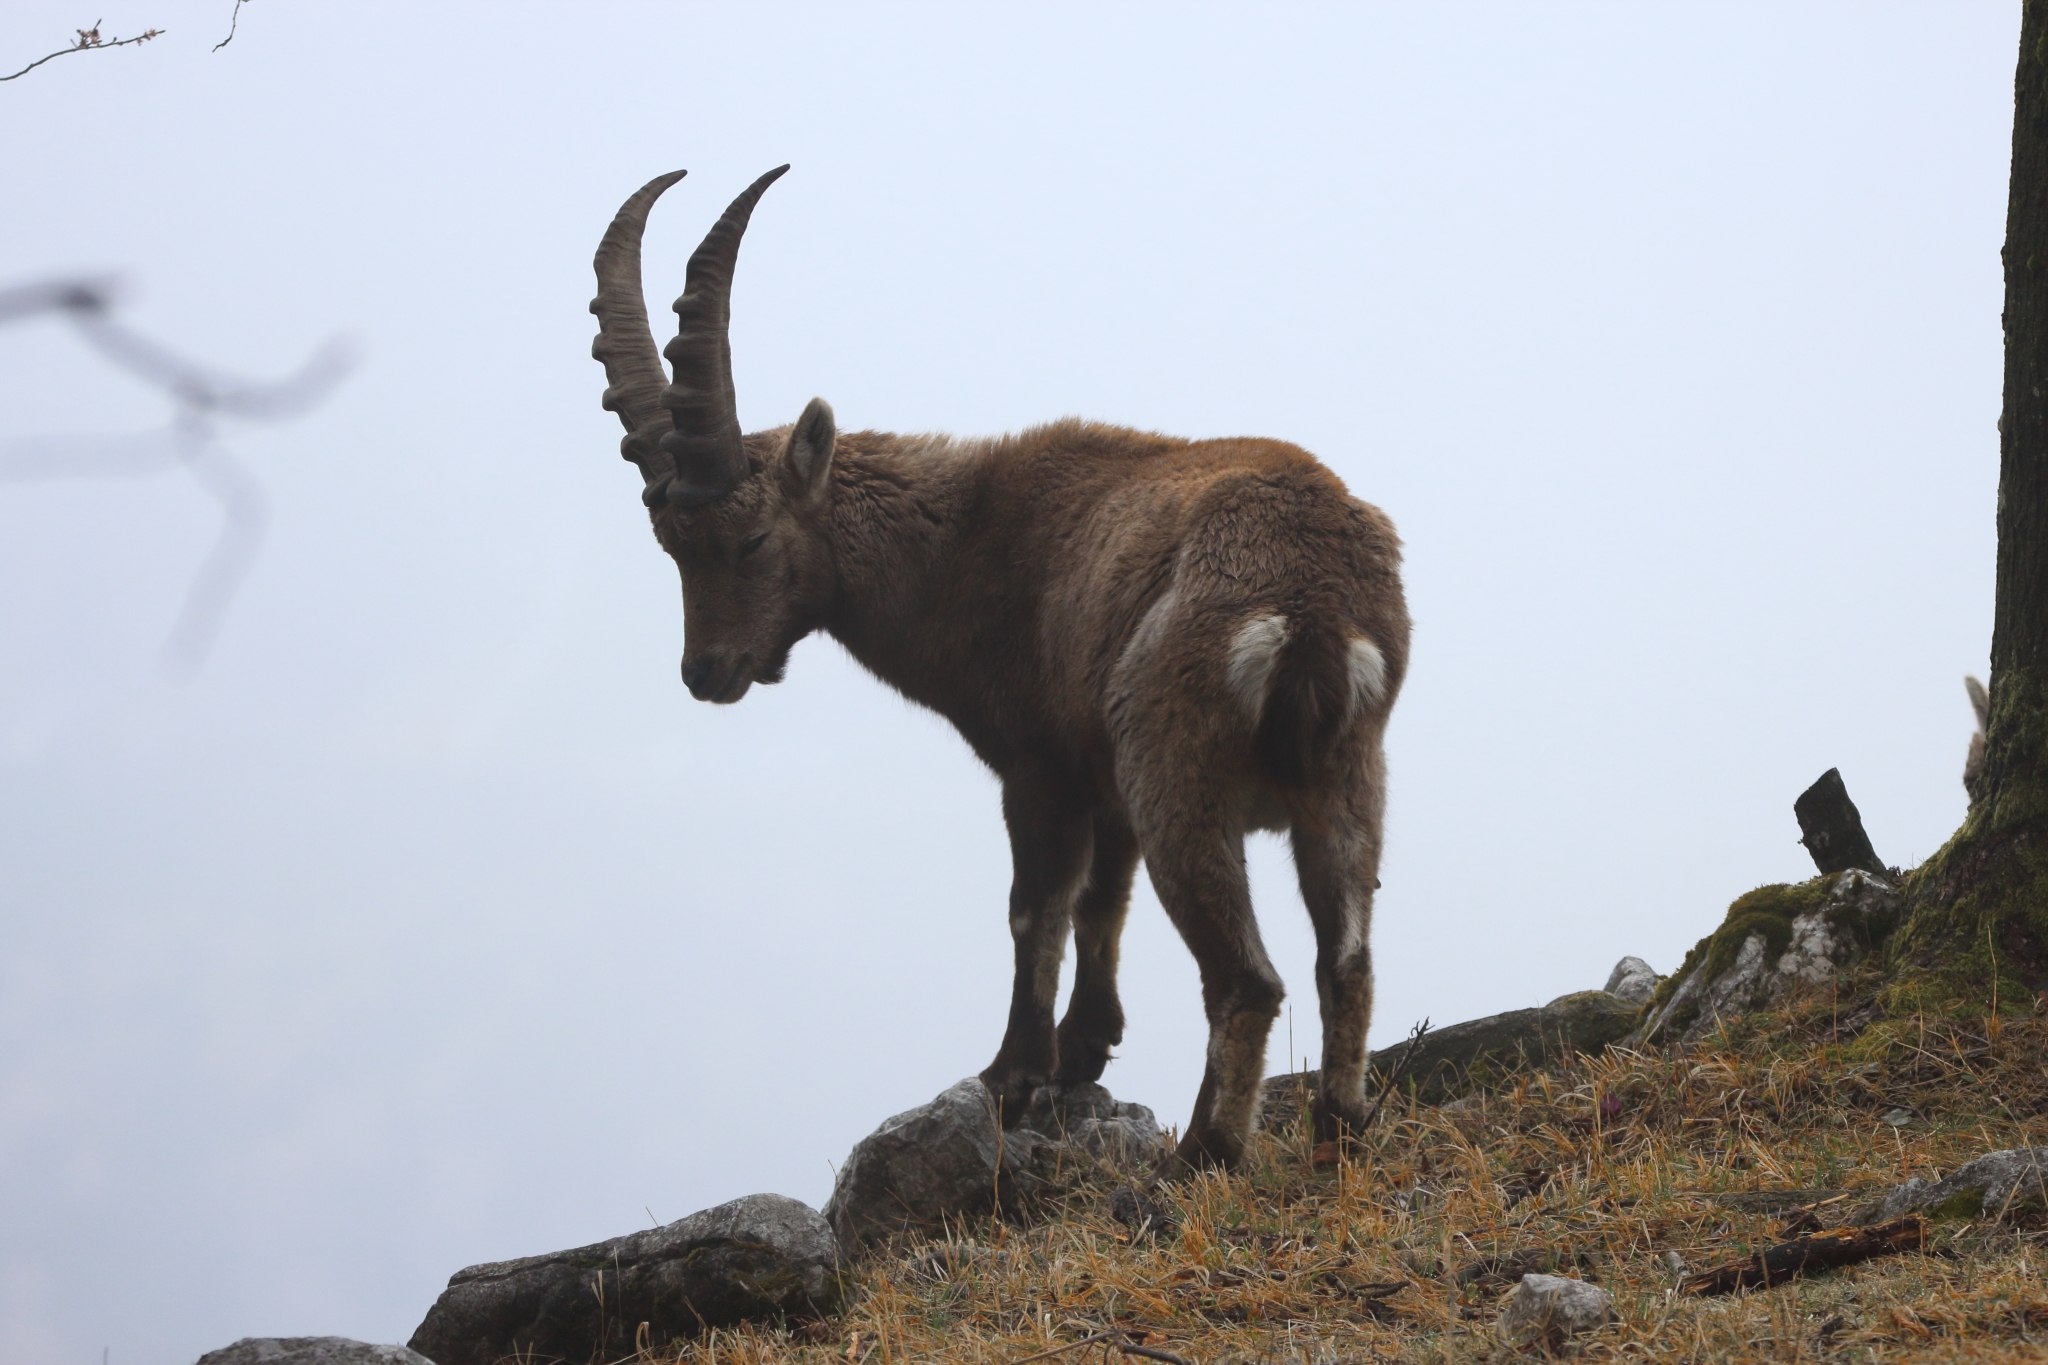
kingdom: Animalia
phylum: Chordata
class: Mammalia
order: Artiodactyla
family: Bovidae
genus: Capra
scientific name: Capra ibex
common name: Alpine ibex
